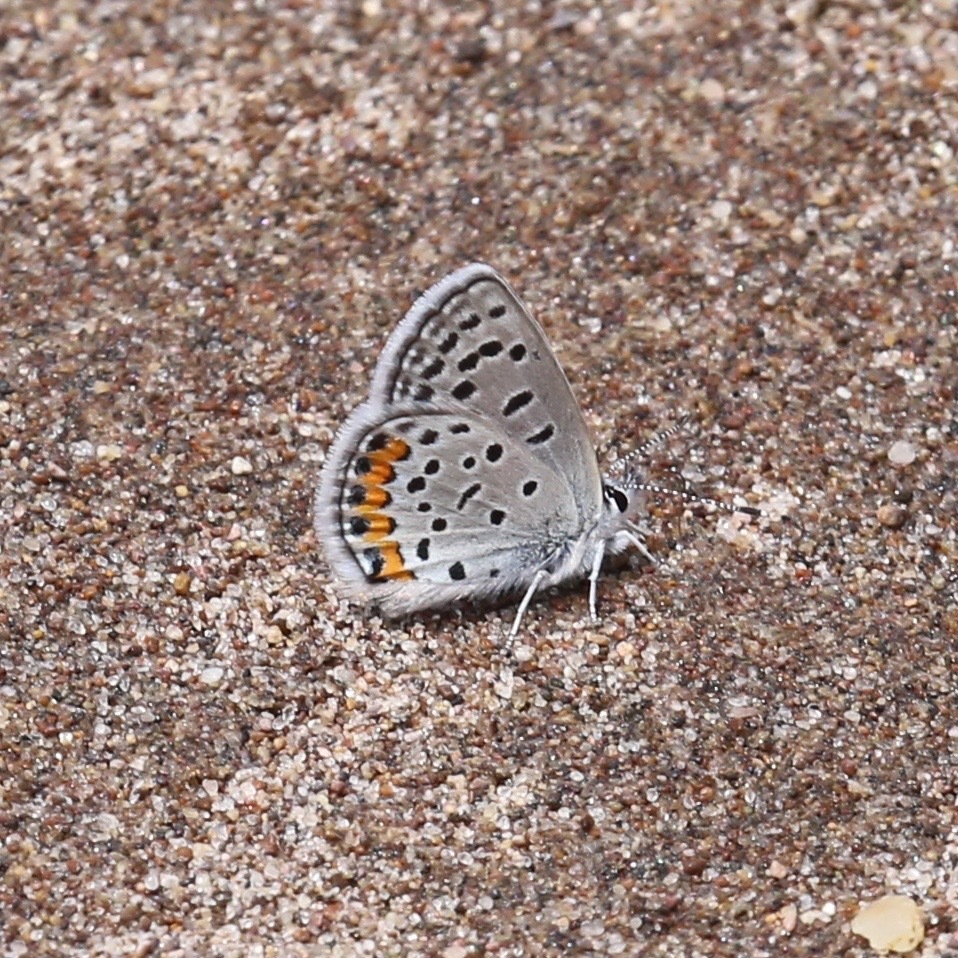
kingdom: Animalia
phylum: Arthropoda
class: Insecta
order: Lepidoptera
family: Lycaenidae
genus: Icaricia
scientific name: Icaricia lupini
